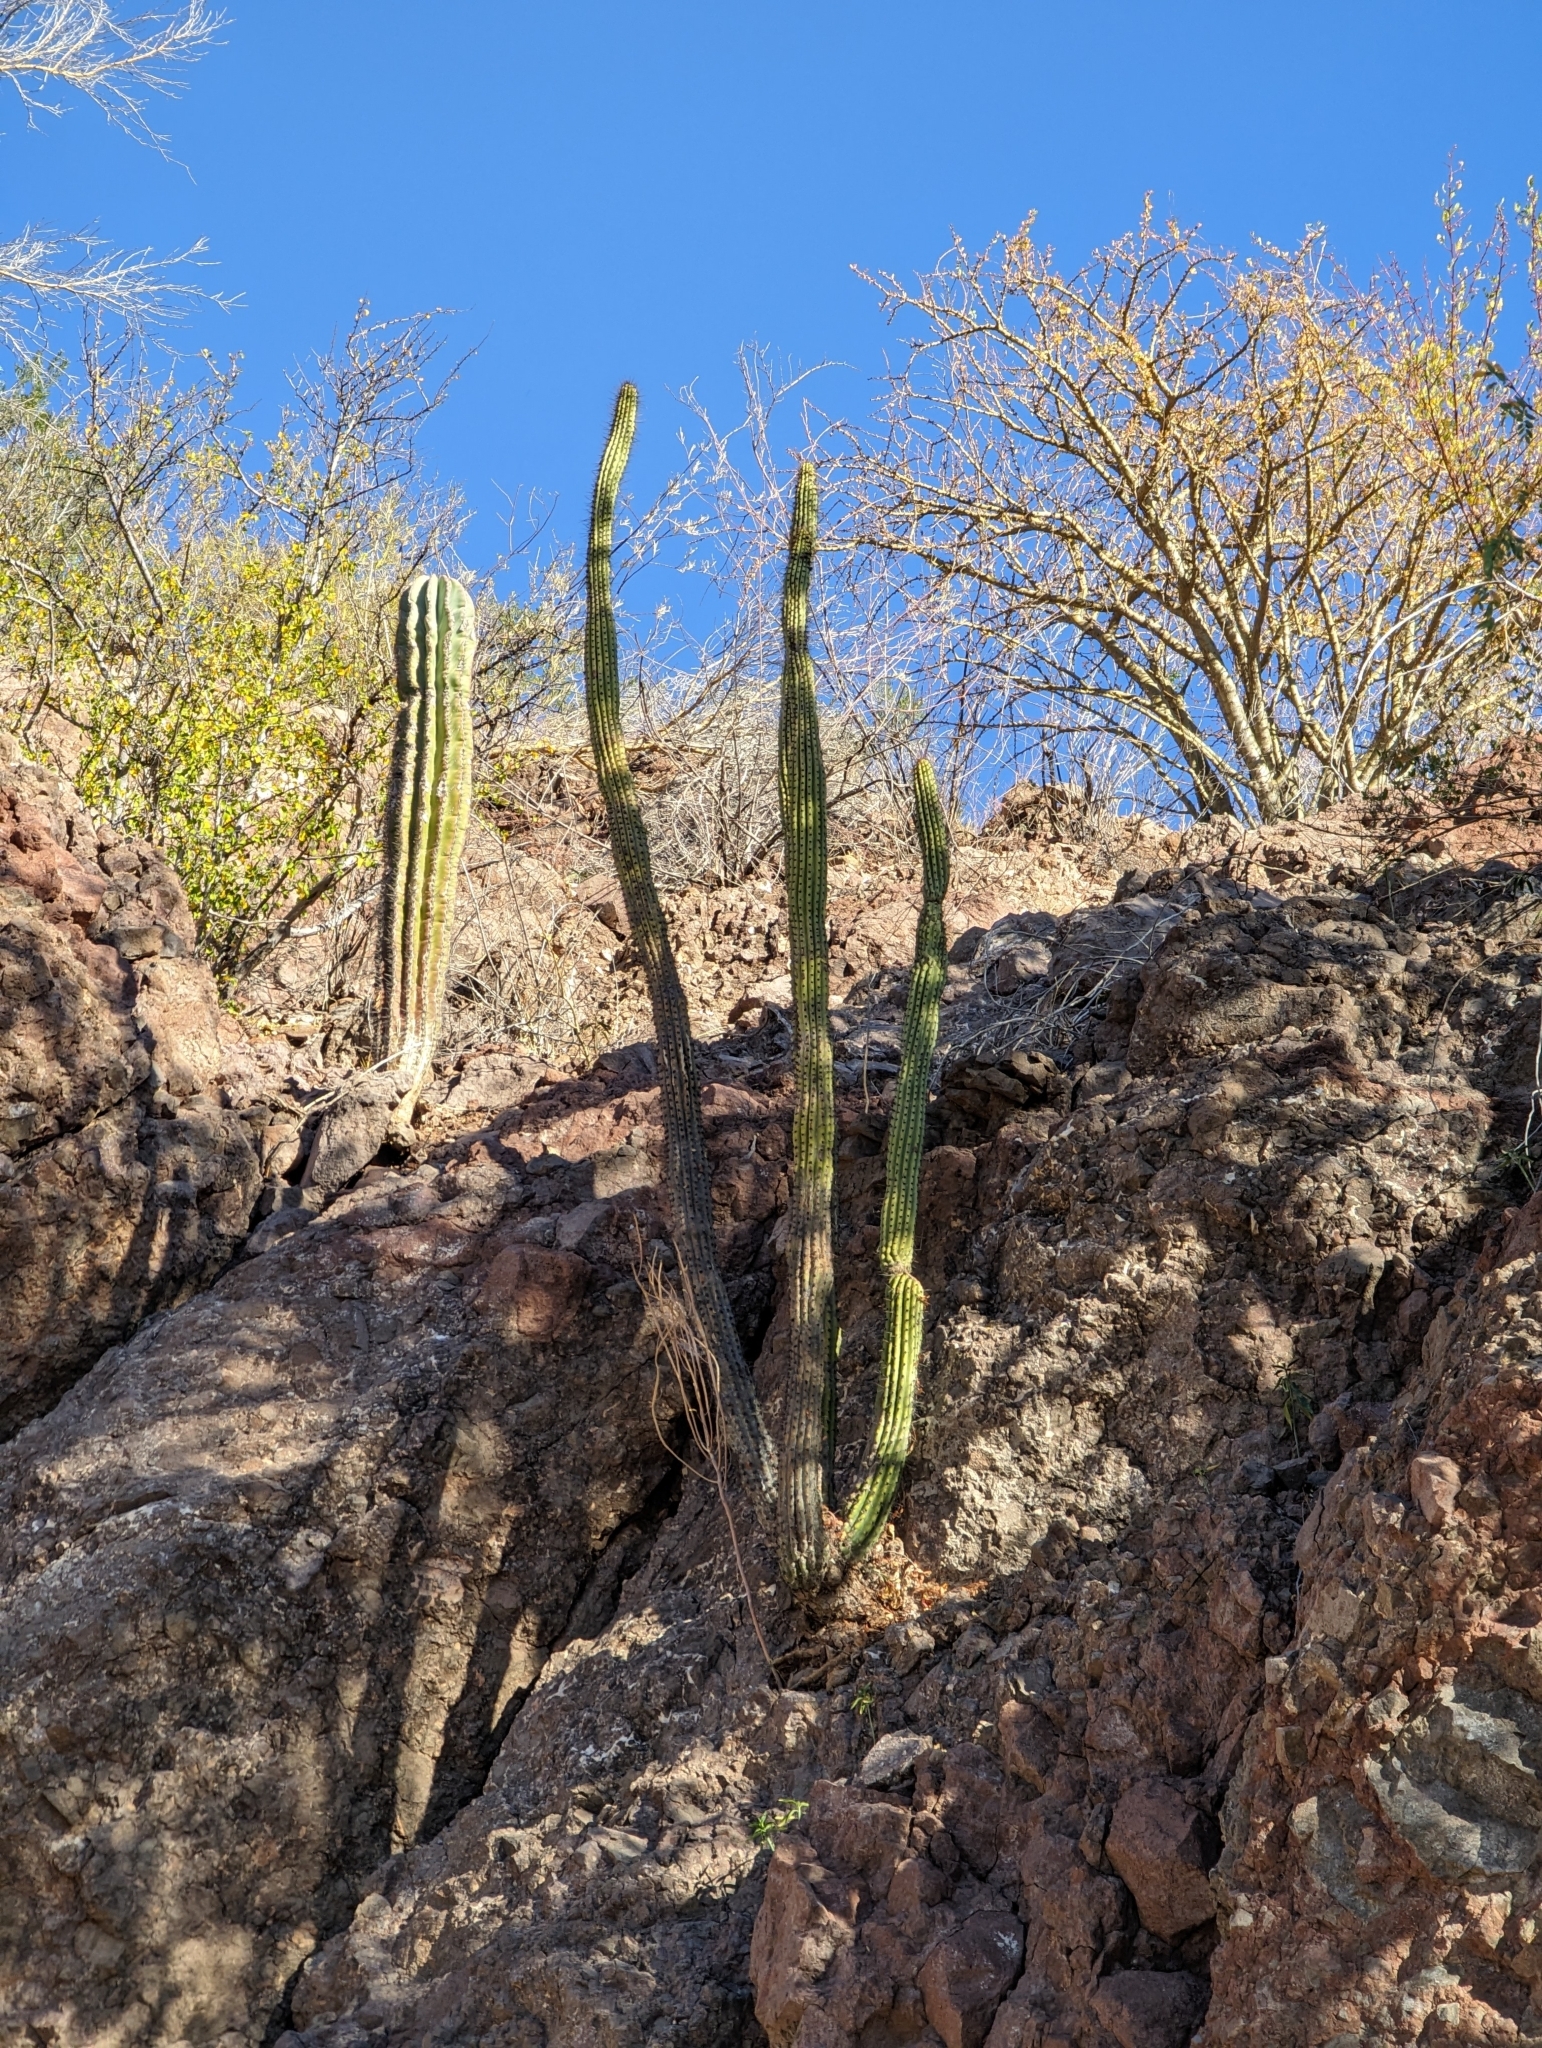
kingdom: Plantae
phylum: Tracheophyta
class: Magnoliopsida
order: Caryophyllales
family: Cactaceae
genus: Stenocereus
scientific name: Stenocereus thurberi
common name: Organ pipe cactus
